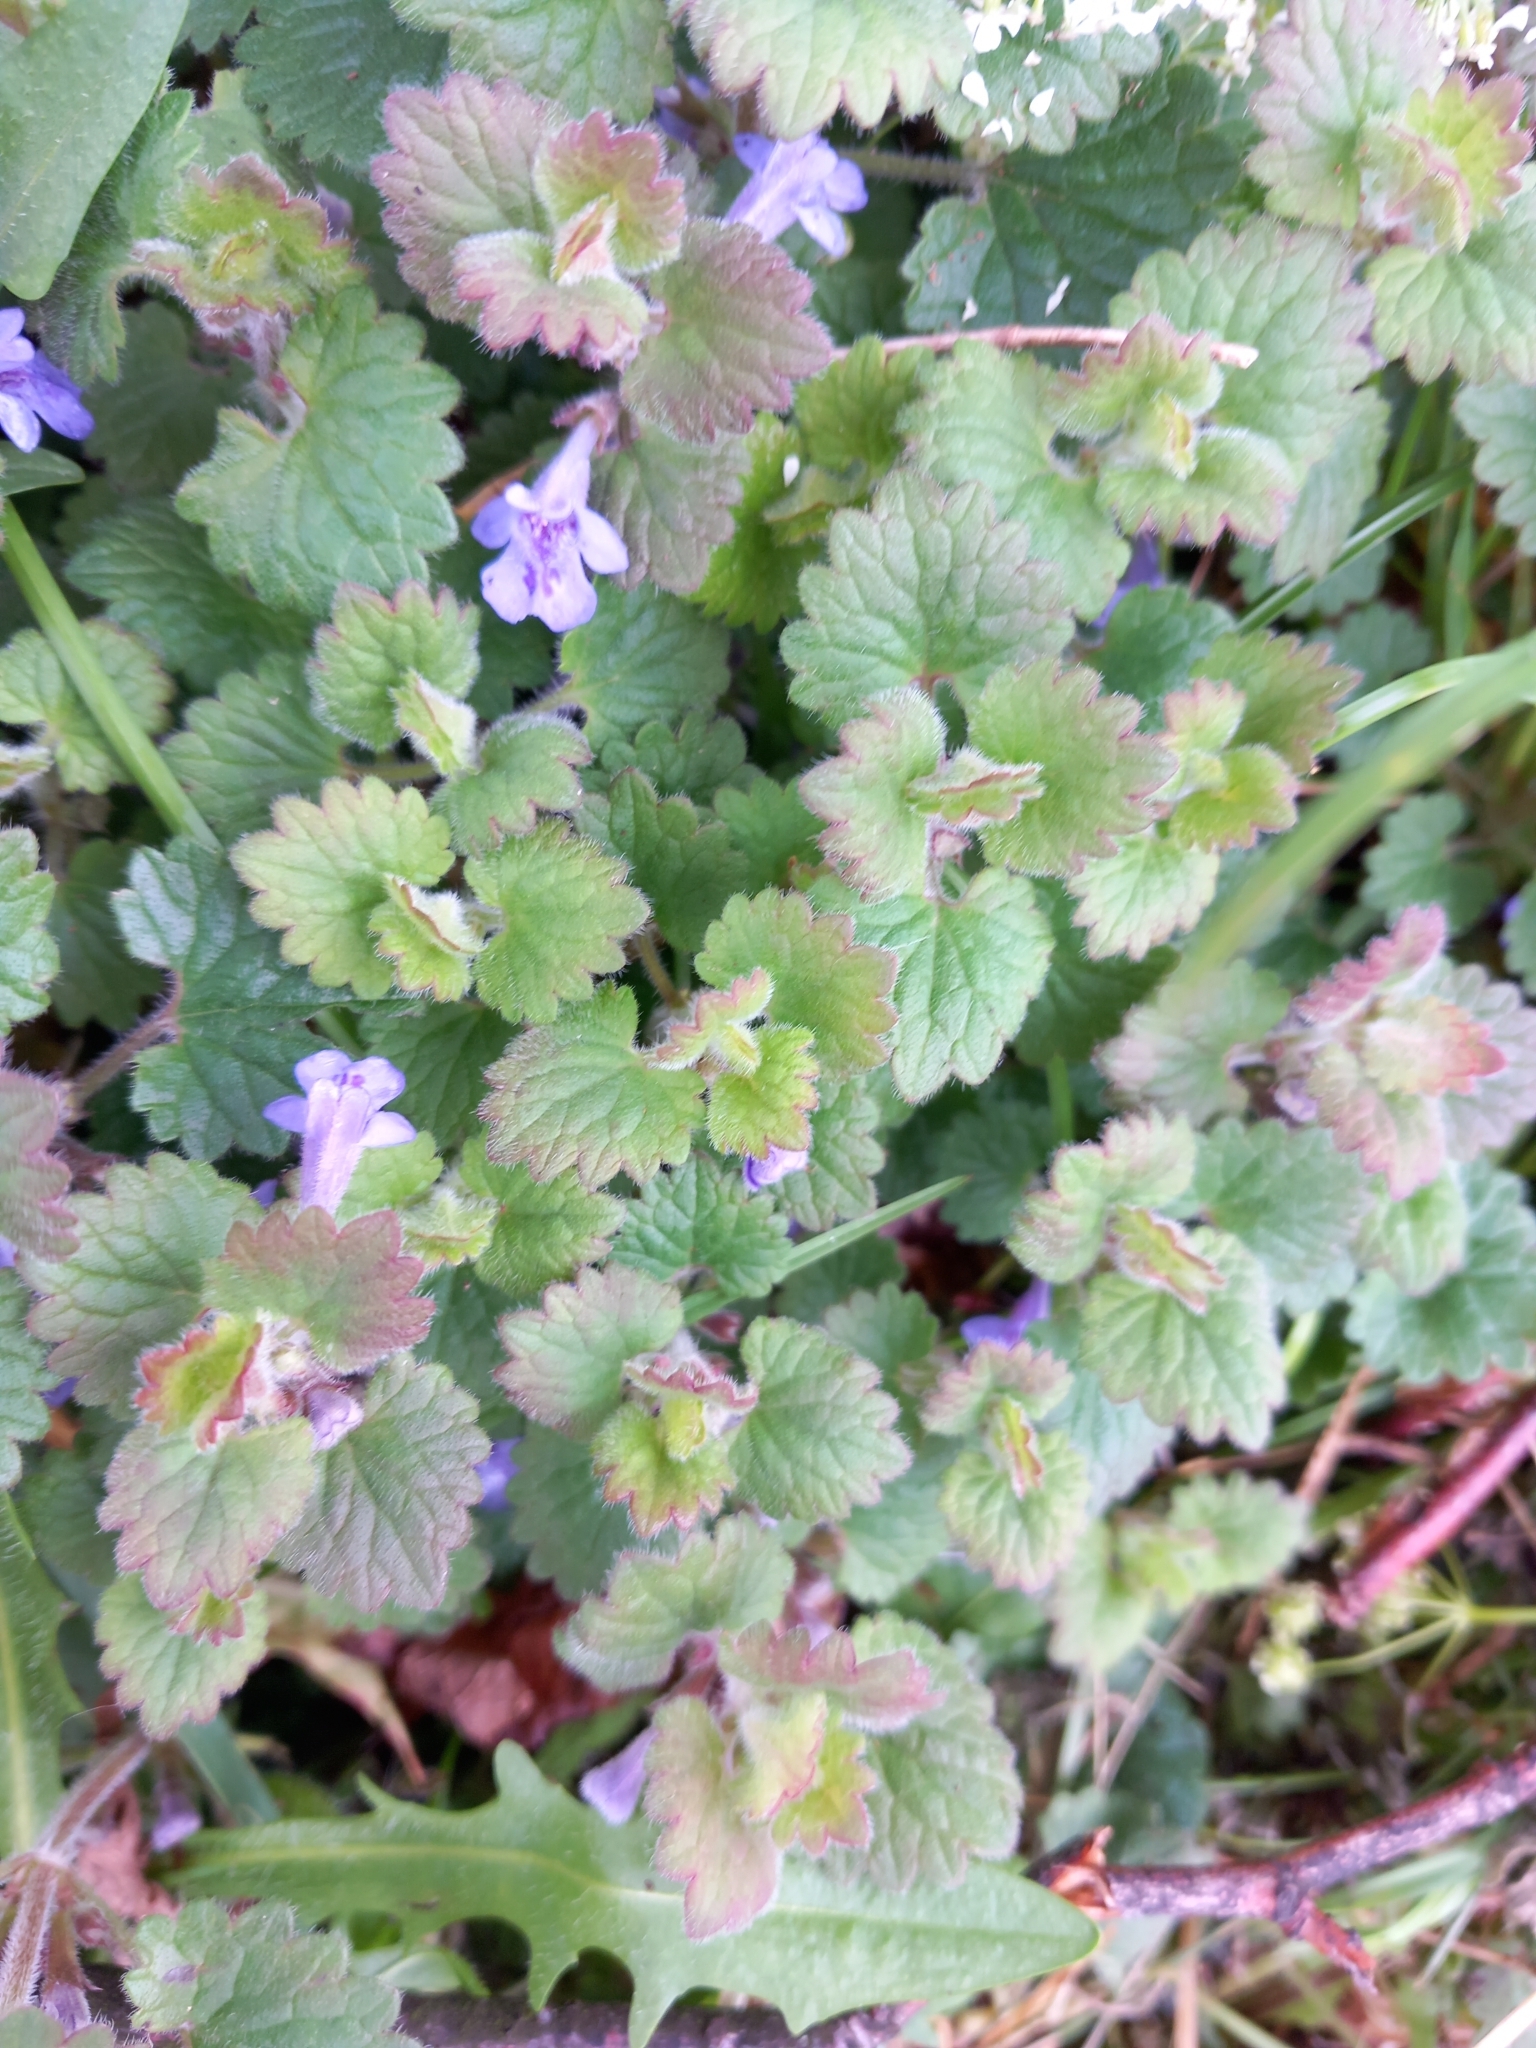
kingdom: Plantae
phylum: Tracheophyta
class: Magnoliopsida
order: Lamiales
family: Lamiaceae
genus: Glechoma
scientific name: Glechoma hederacea
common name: Ground ivy
